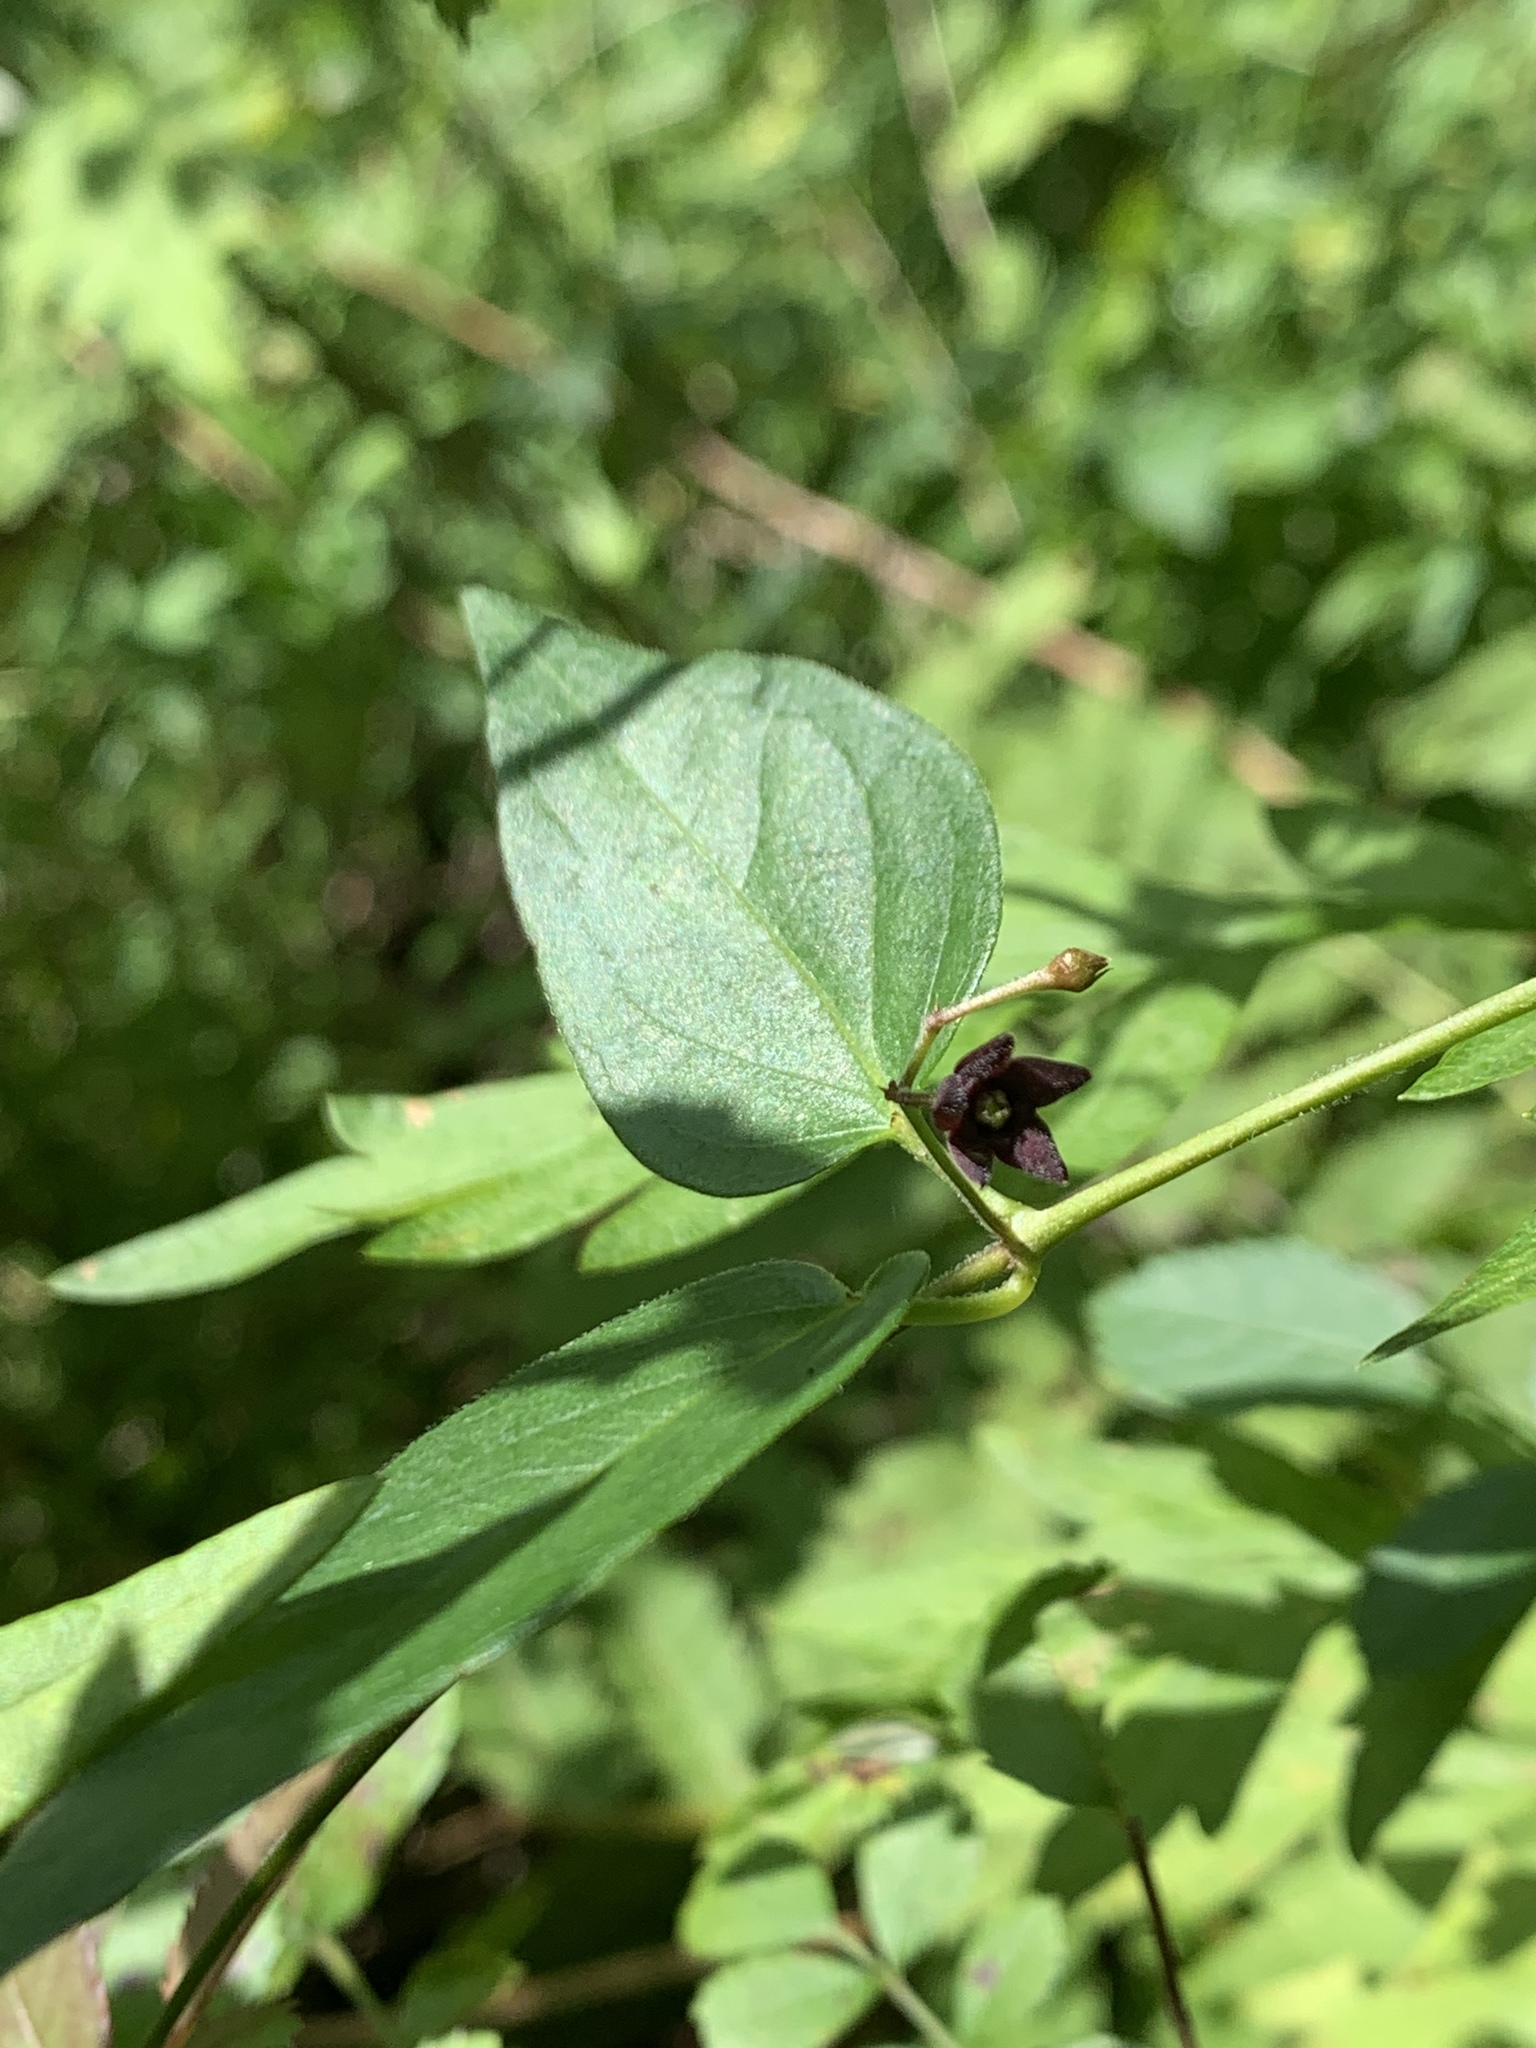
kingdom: Plantae
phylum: Tracheophyta
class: Magnoliopsida
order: Gentianales
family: Apocynaceae
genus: Vincetoxicum
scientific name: Vincetoxicum nigrum
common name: Black swallow-wort
